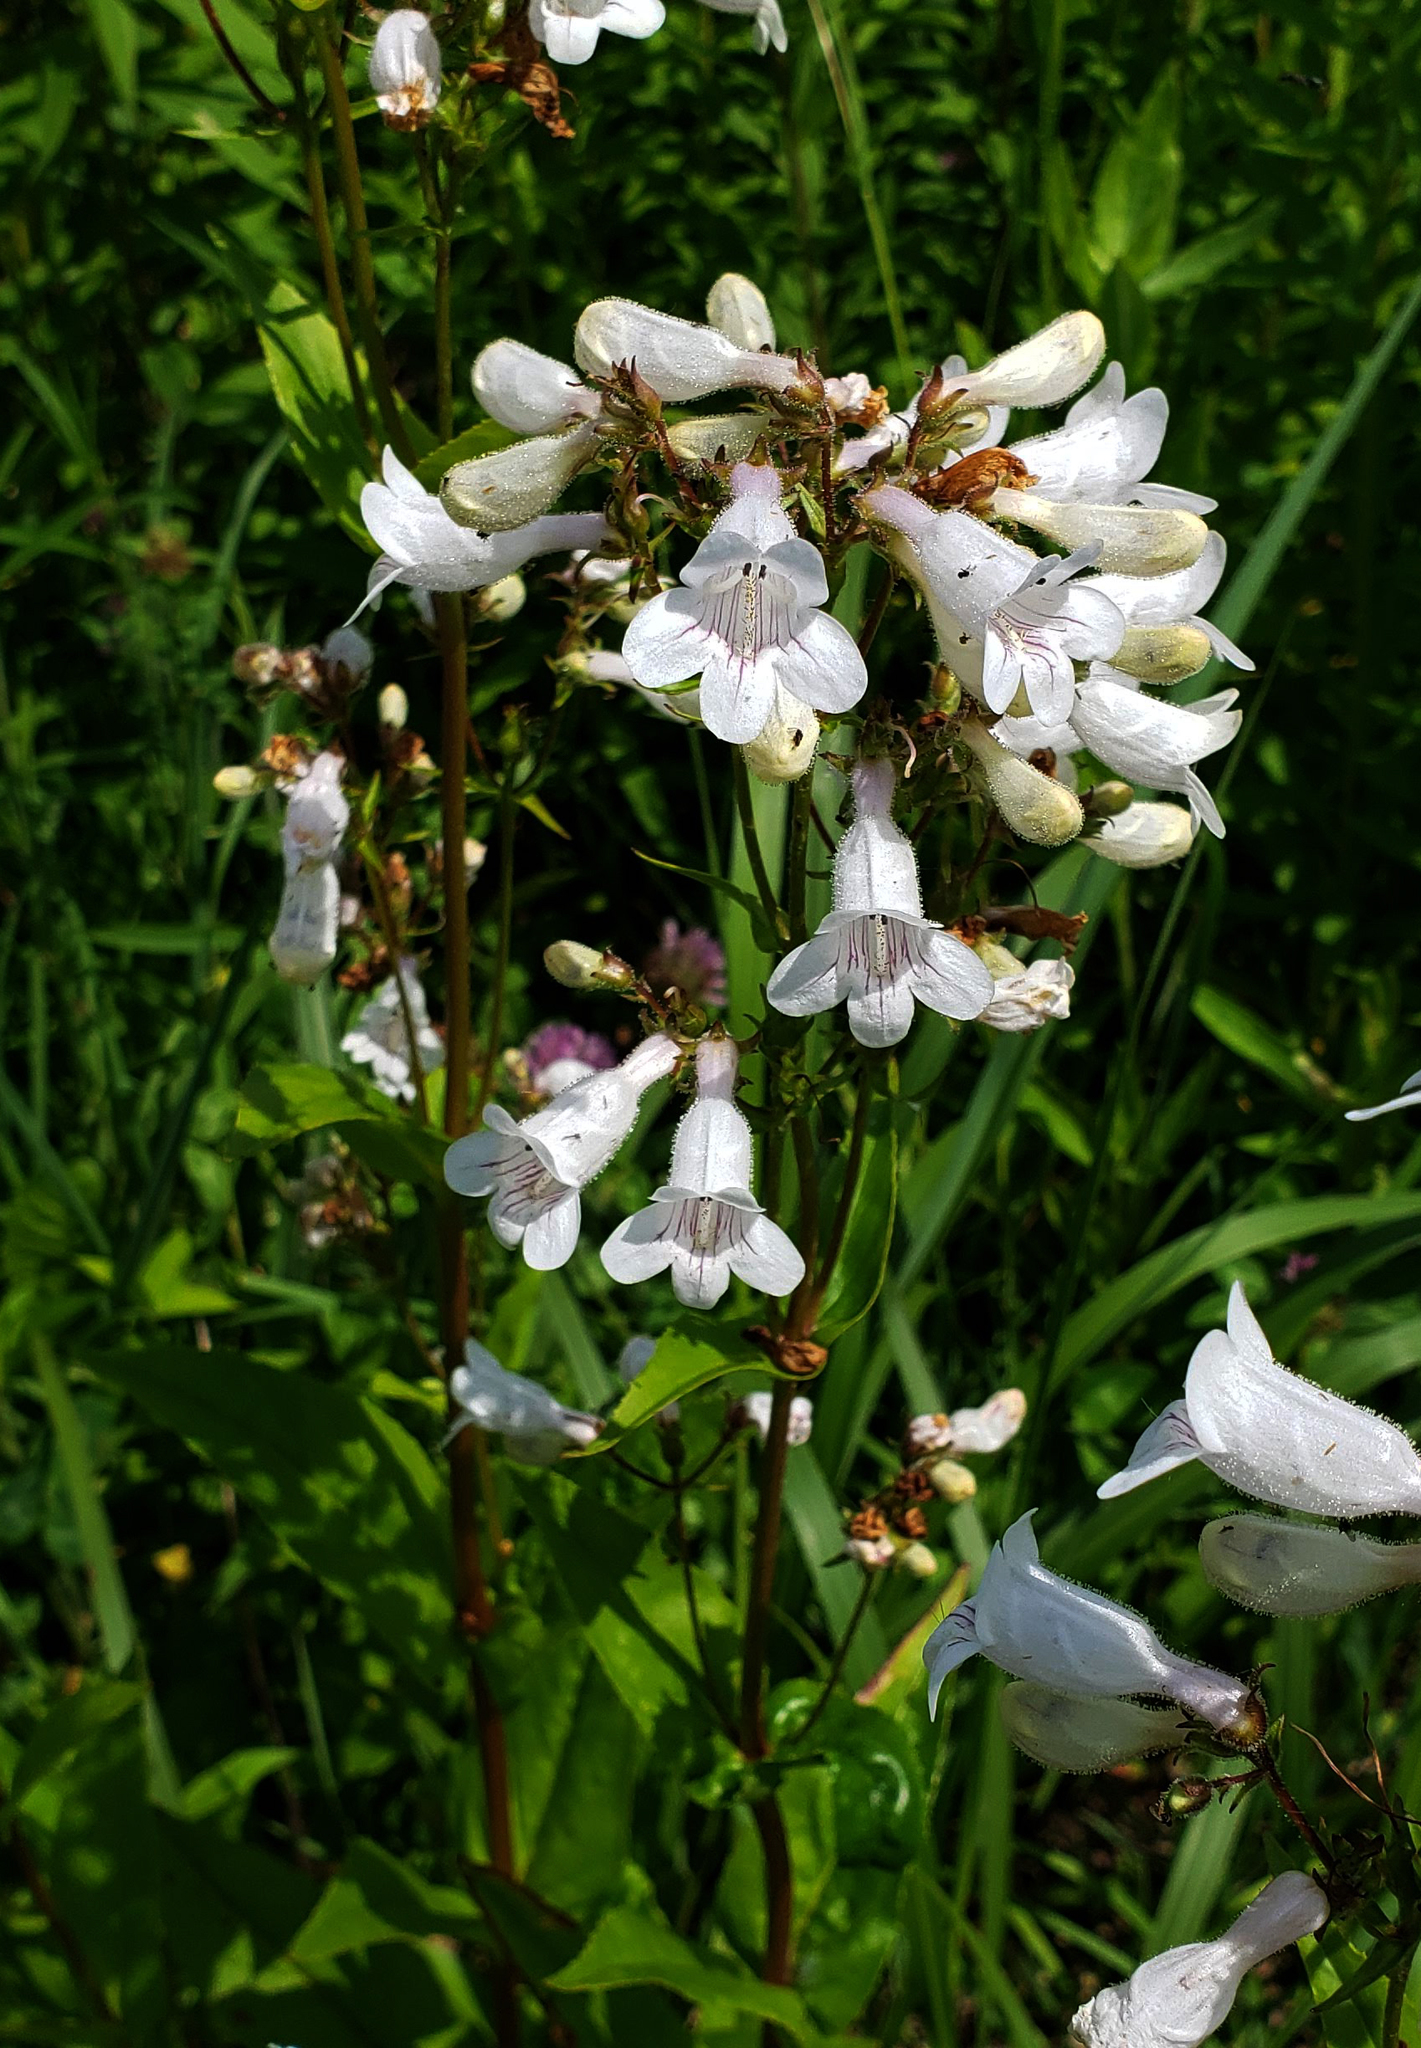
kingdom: Plantae
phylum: Tracheophyta
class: Magnoliopsida
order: Lamiales
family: Plantaginaceae
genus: Penstemon
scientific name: Penstemon digitalis
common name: Foxglove beardtongue
